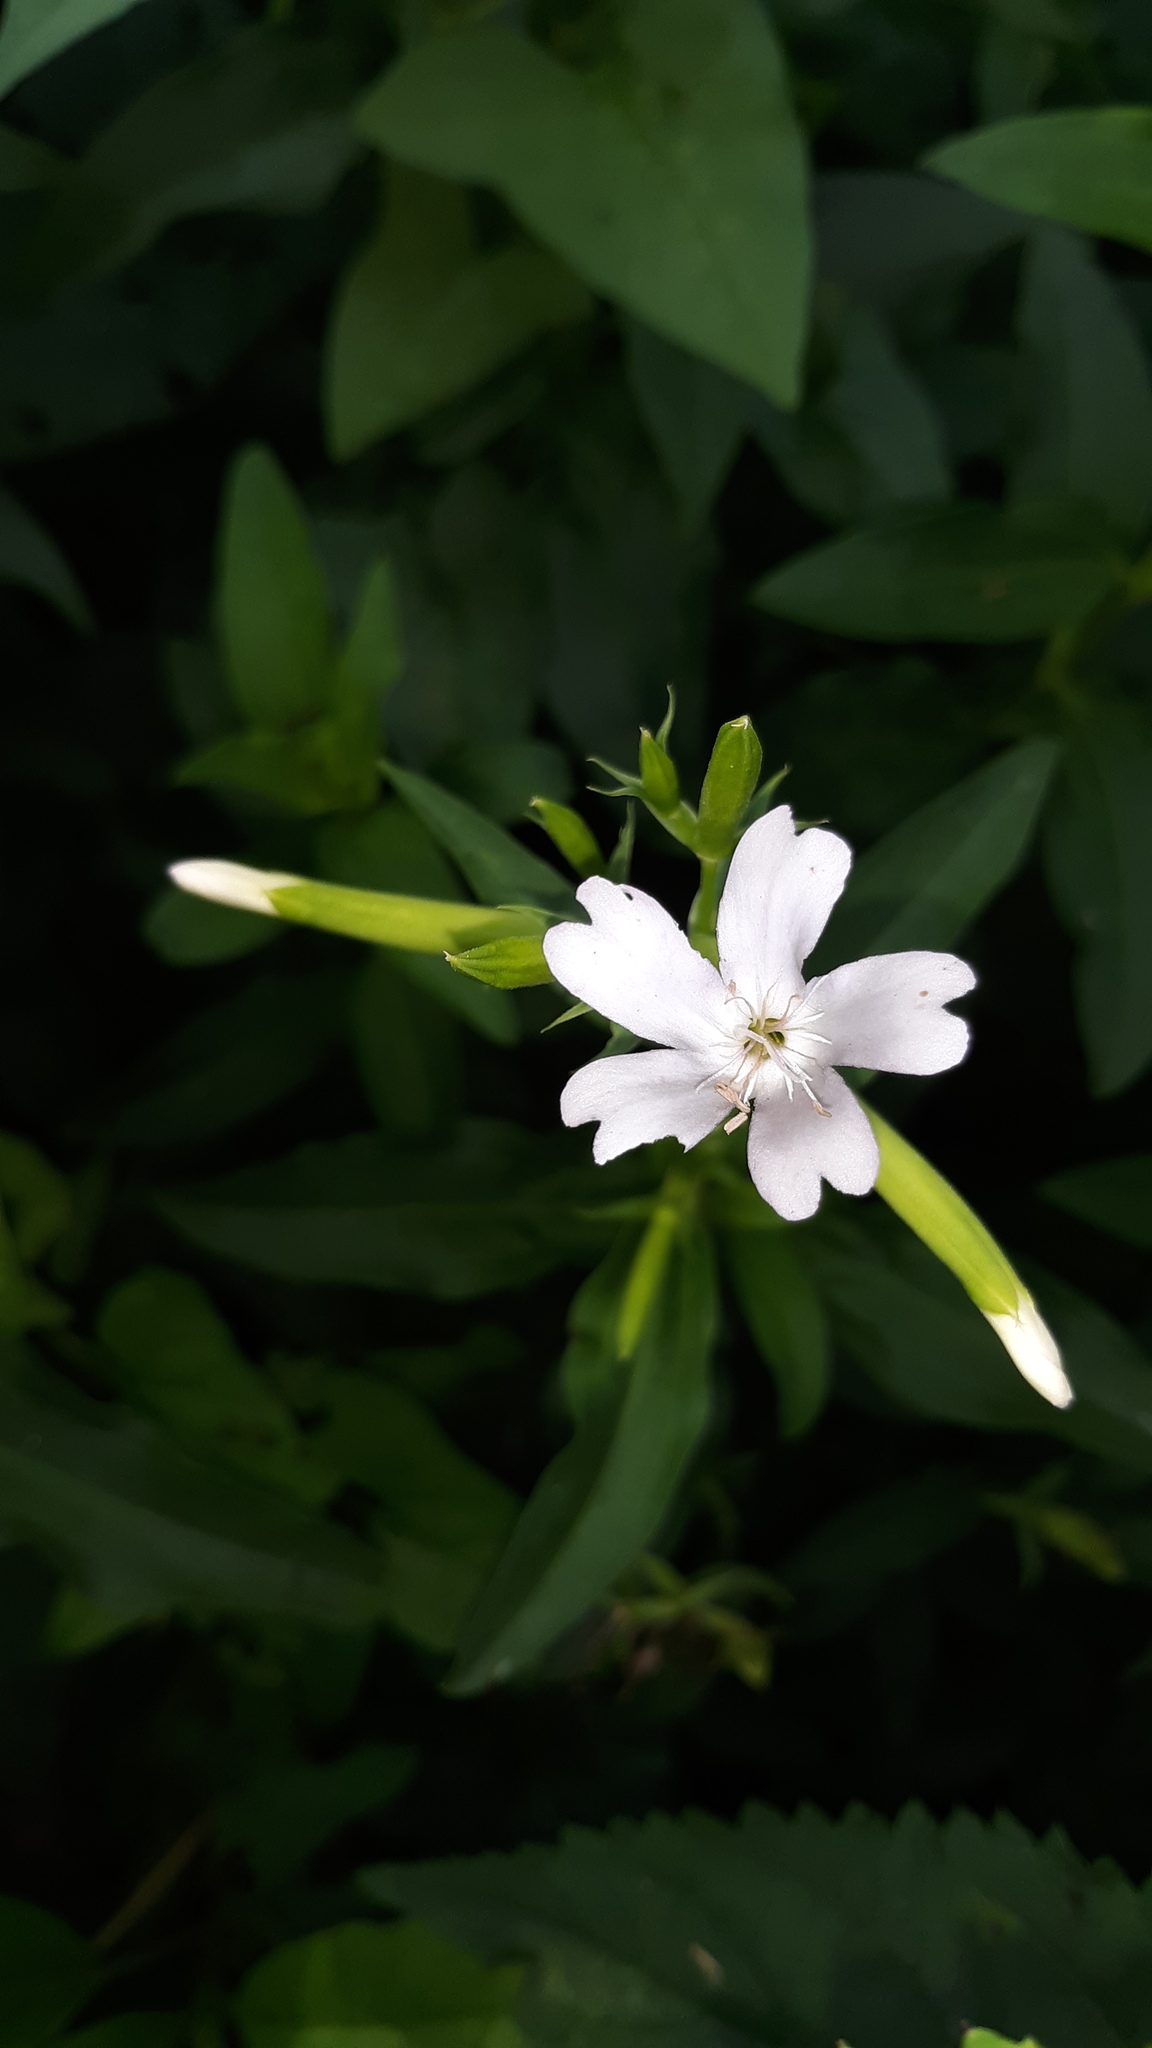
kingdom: Plantae
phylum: Tracheophyta
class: Magnoliopsida
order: Caryophyllales
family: Caryophyllaceae
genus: Saponaria
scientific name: Saponaria officinalis
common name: Soapwort
